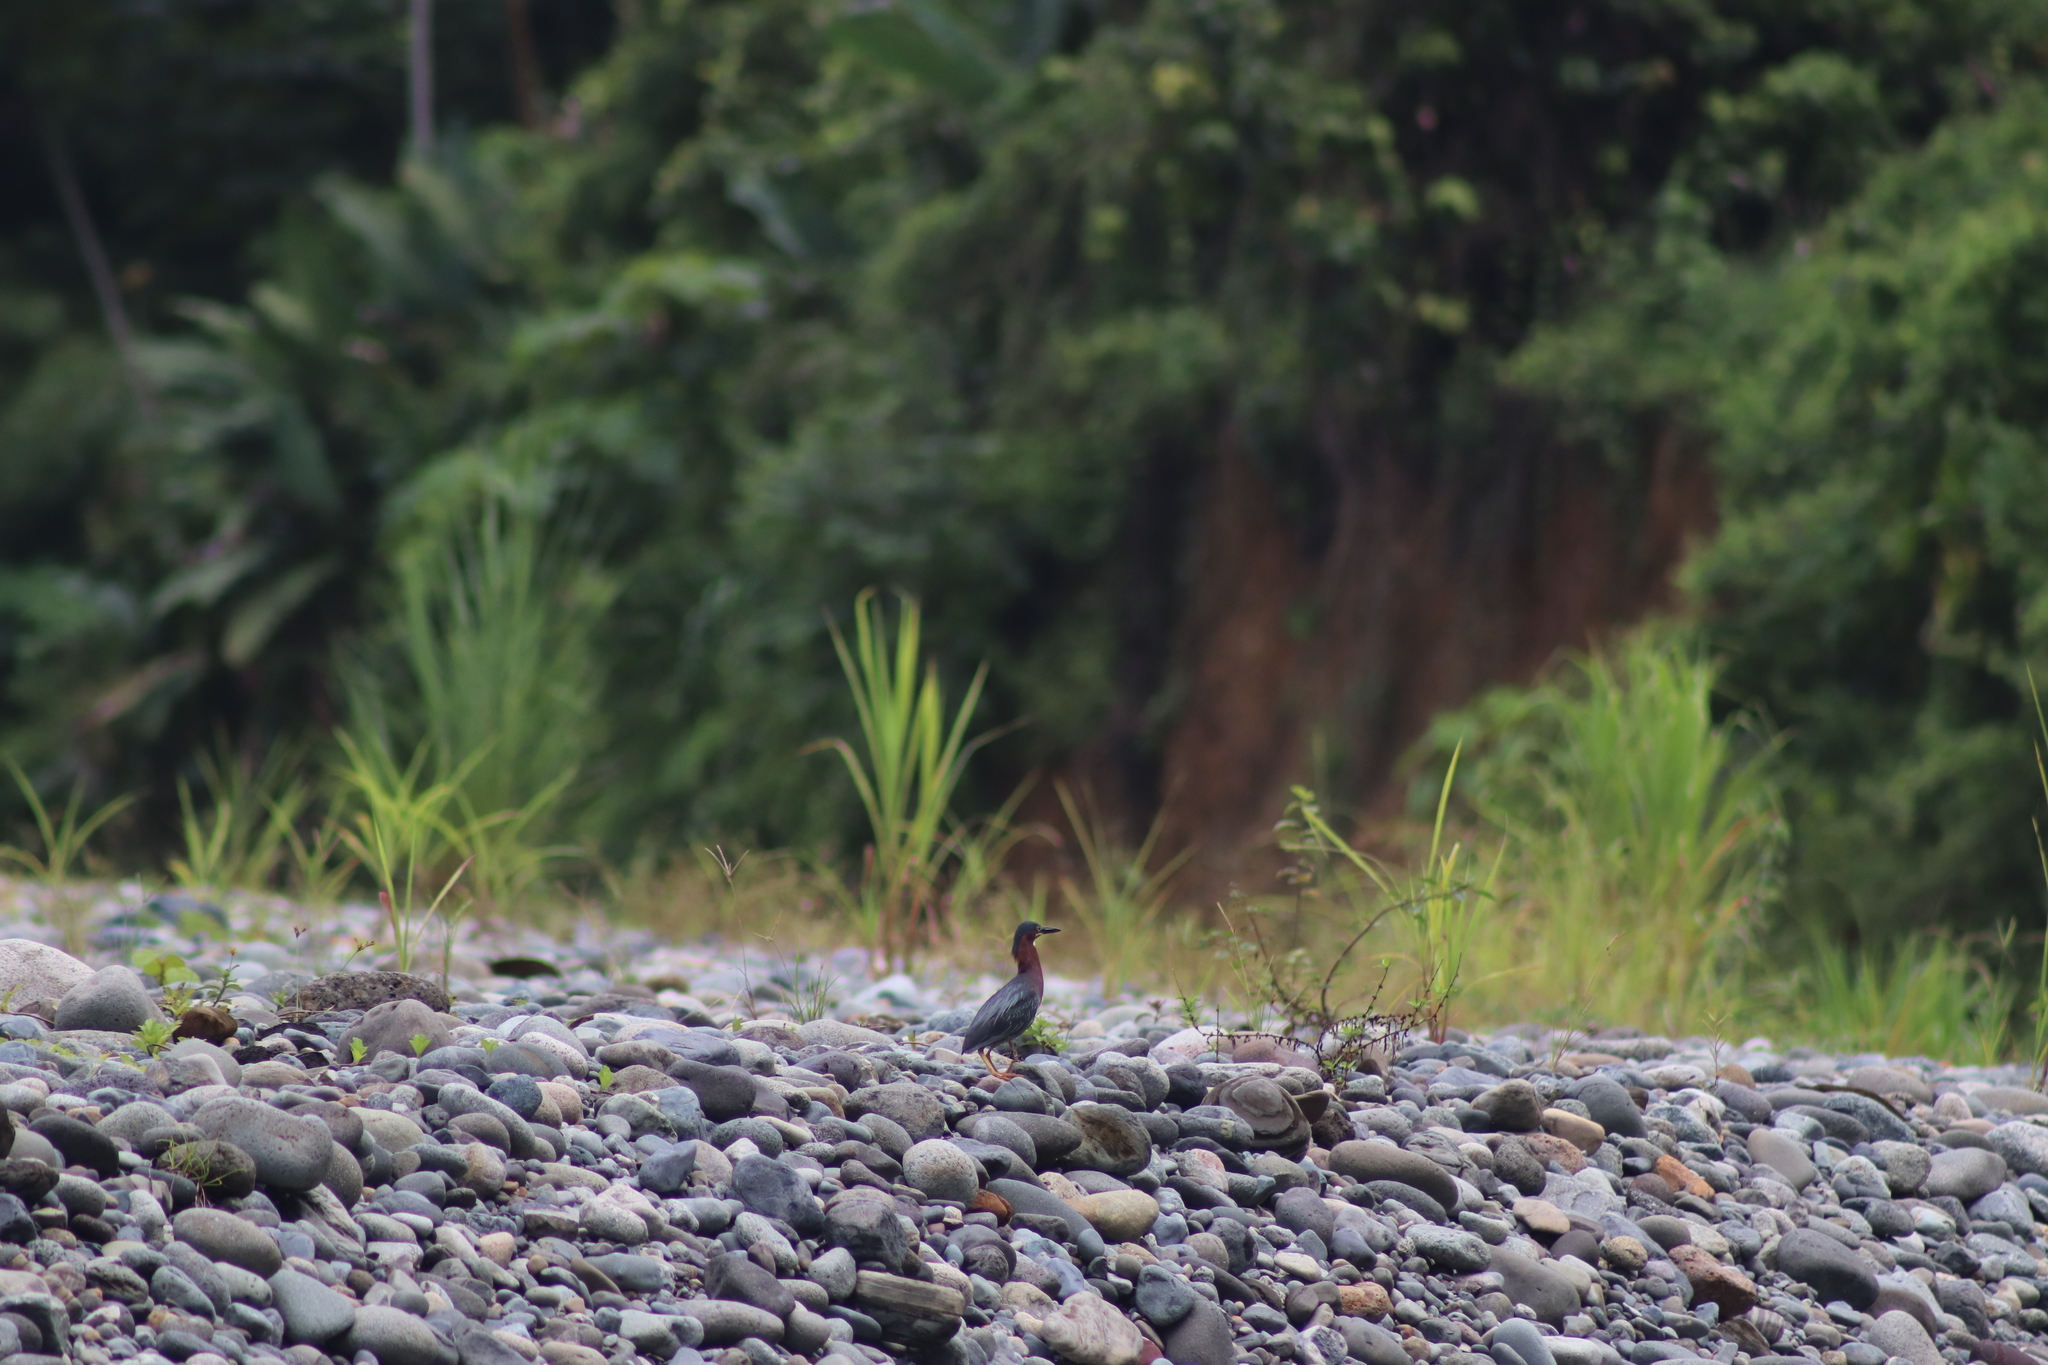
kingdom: Animalia
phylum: Chordata
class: Aves
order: Pelecaniformes
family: Ardeidae
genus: Butorides
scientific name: Butorides virescens
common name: Green heron
